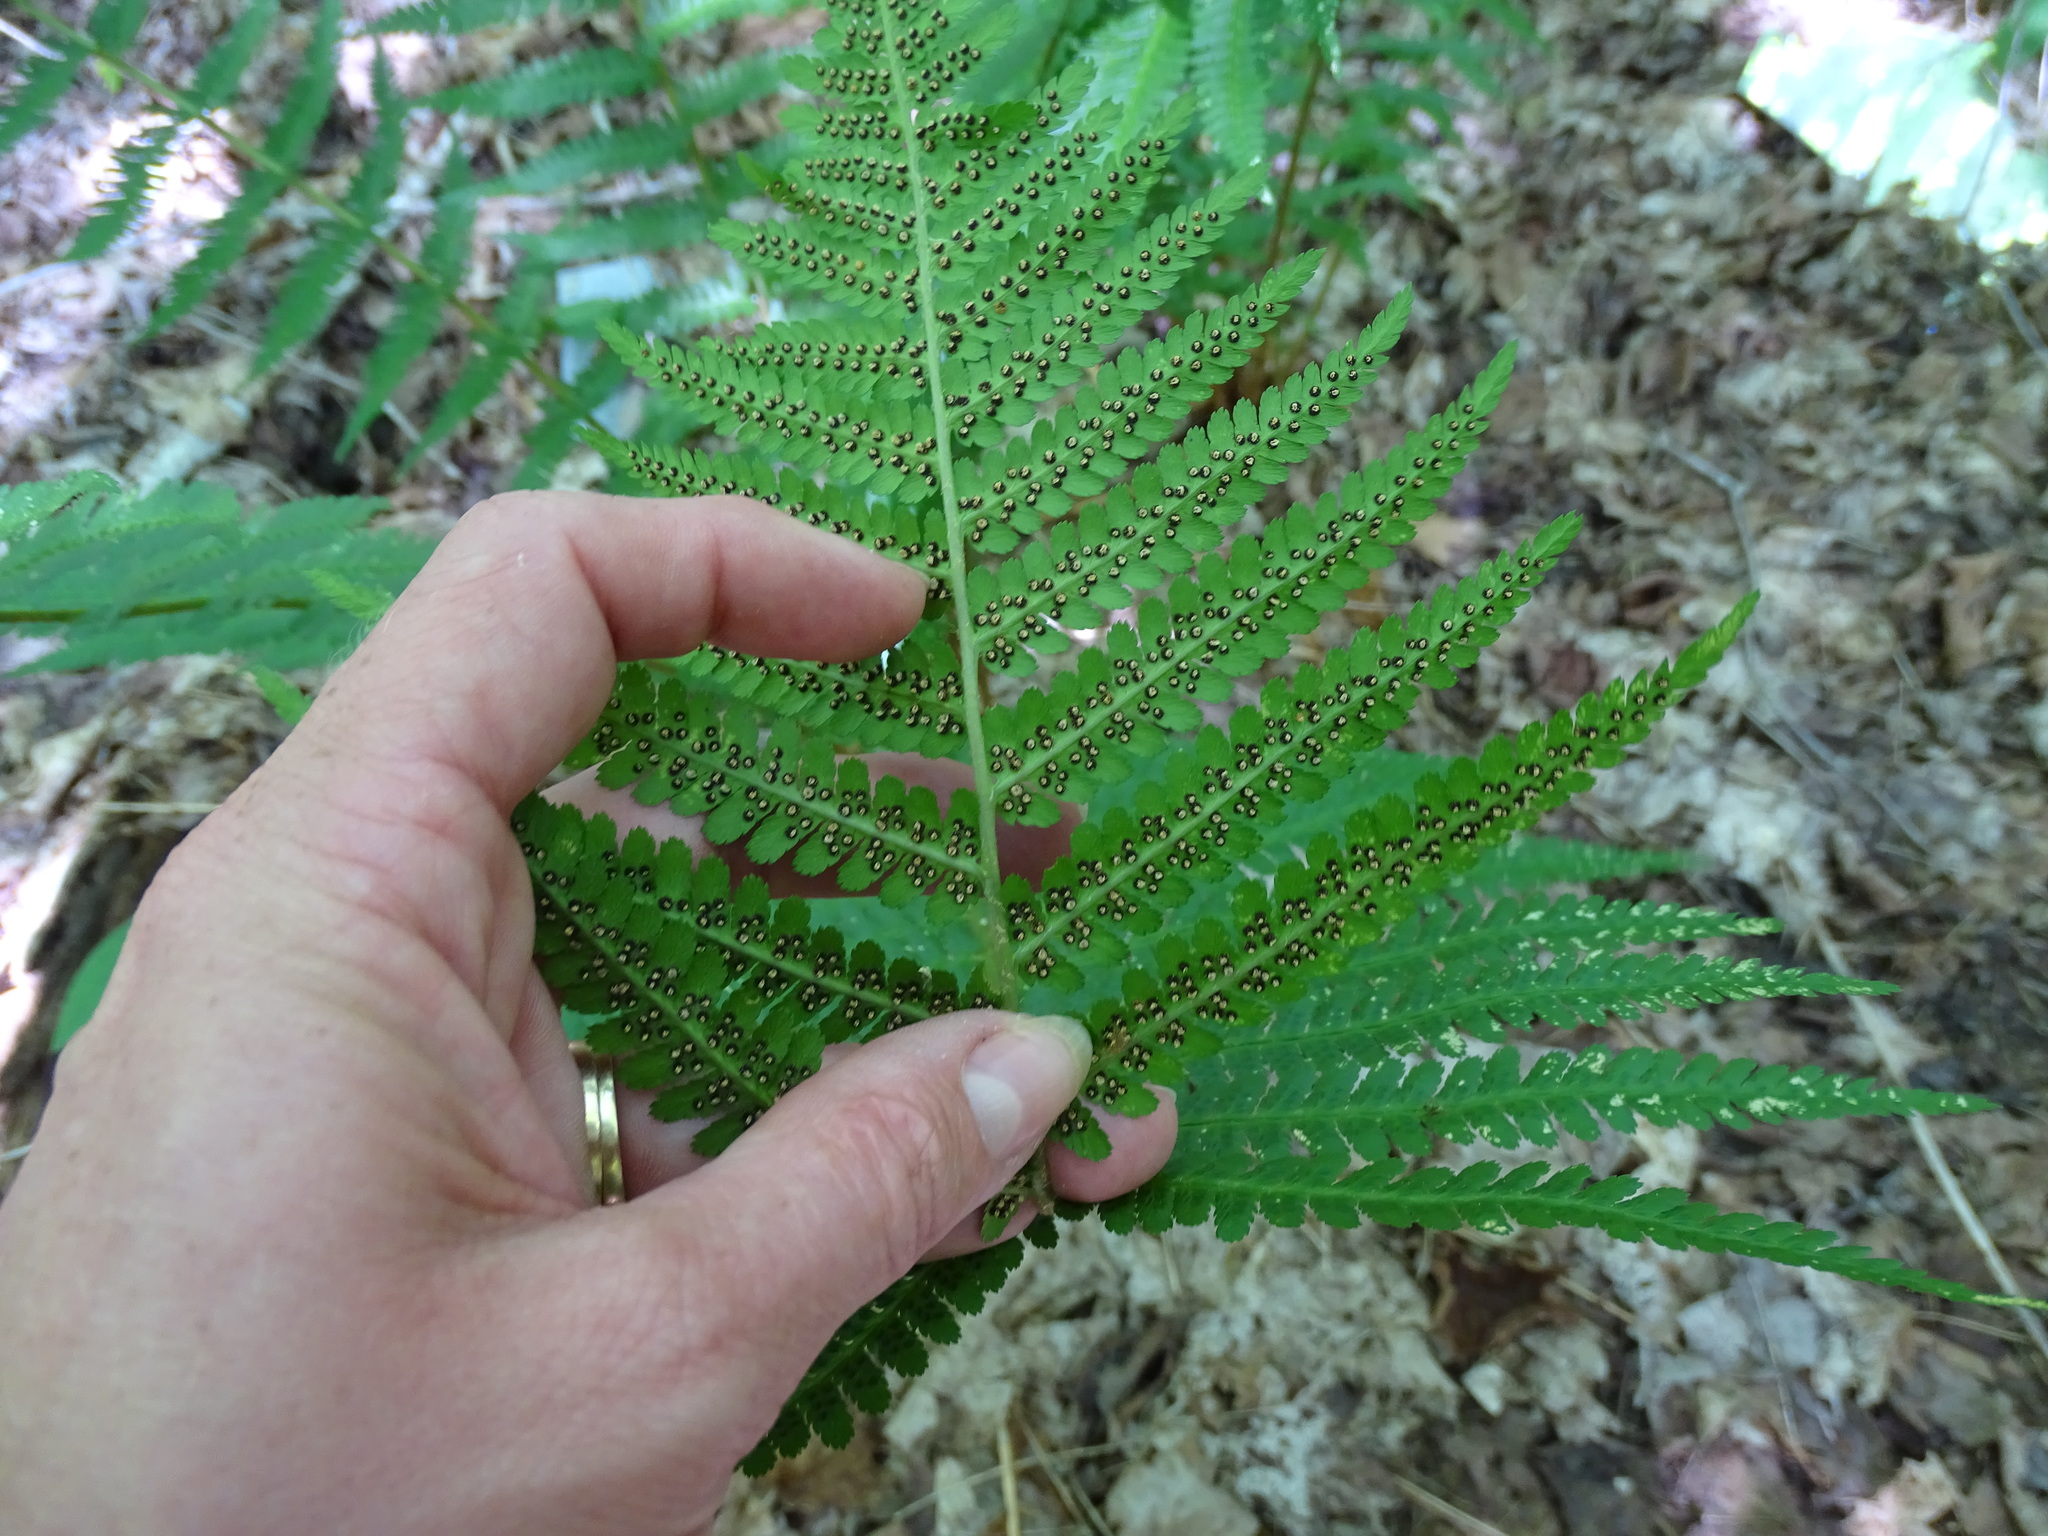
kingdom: Plantae
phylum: Tracheophyta
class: Polypodiopsida
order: Polypodiales
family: Dryopteridaceae
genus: Dryopteris
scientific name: Dryopteris filix-mas
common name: Male fern
